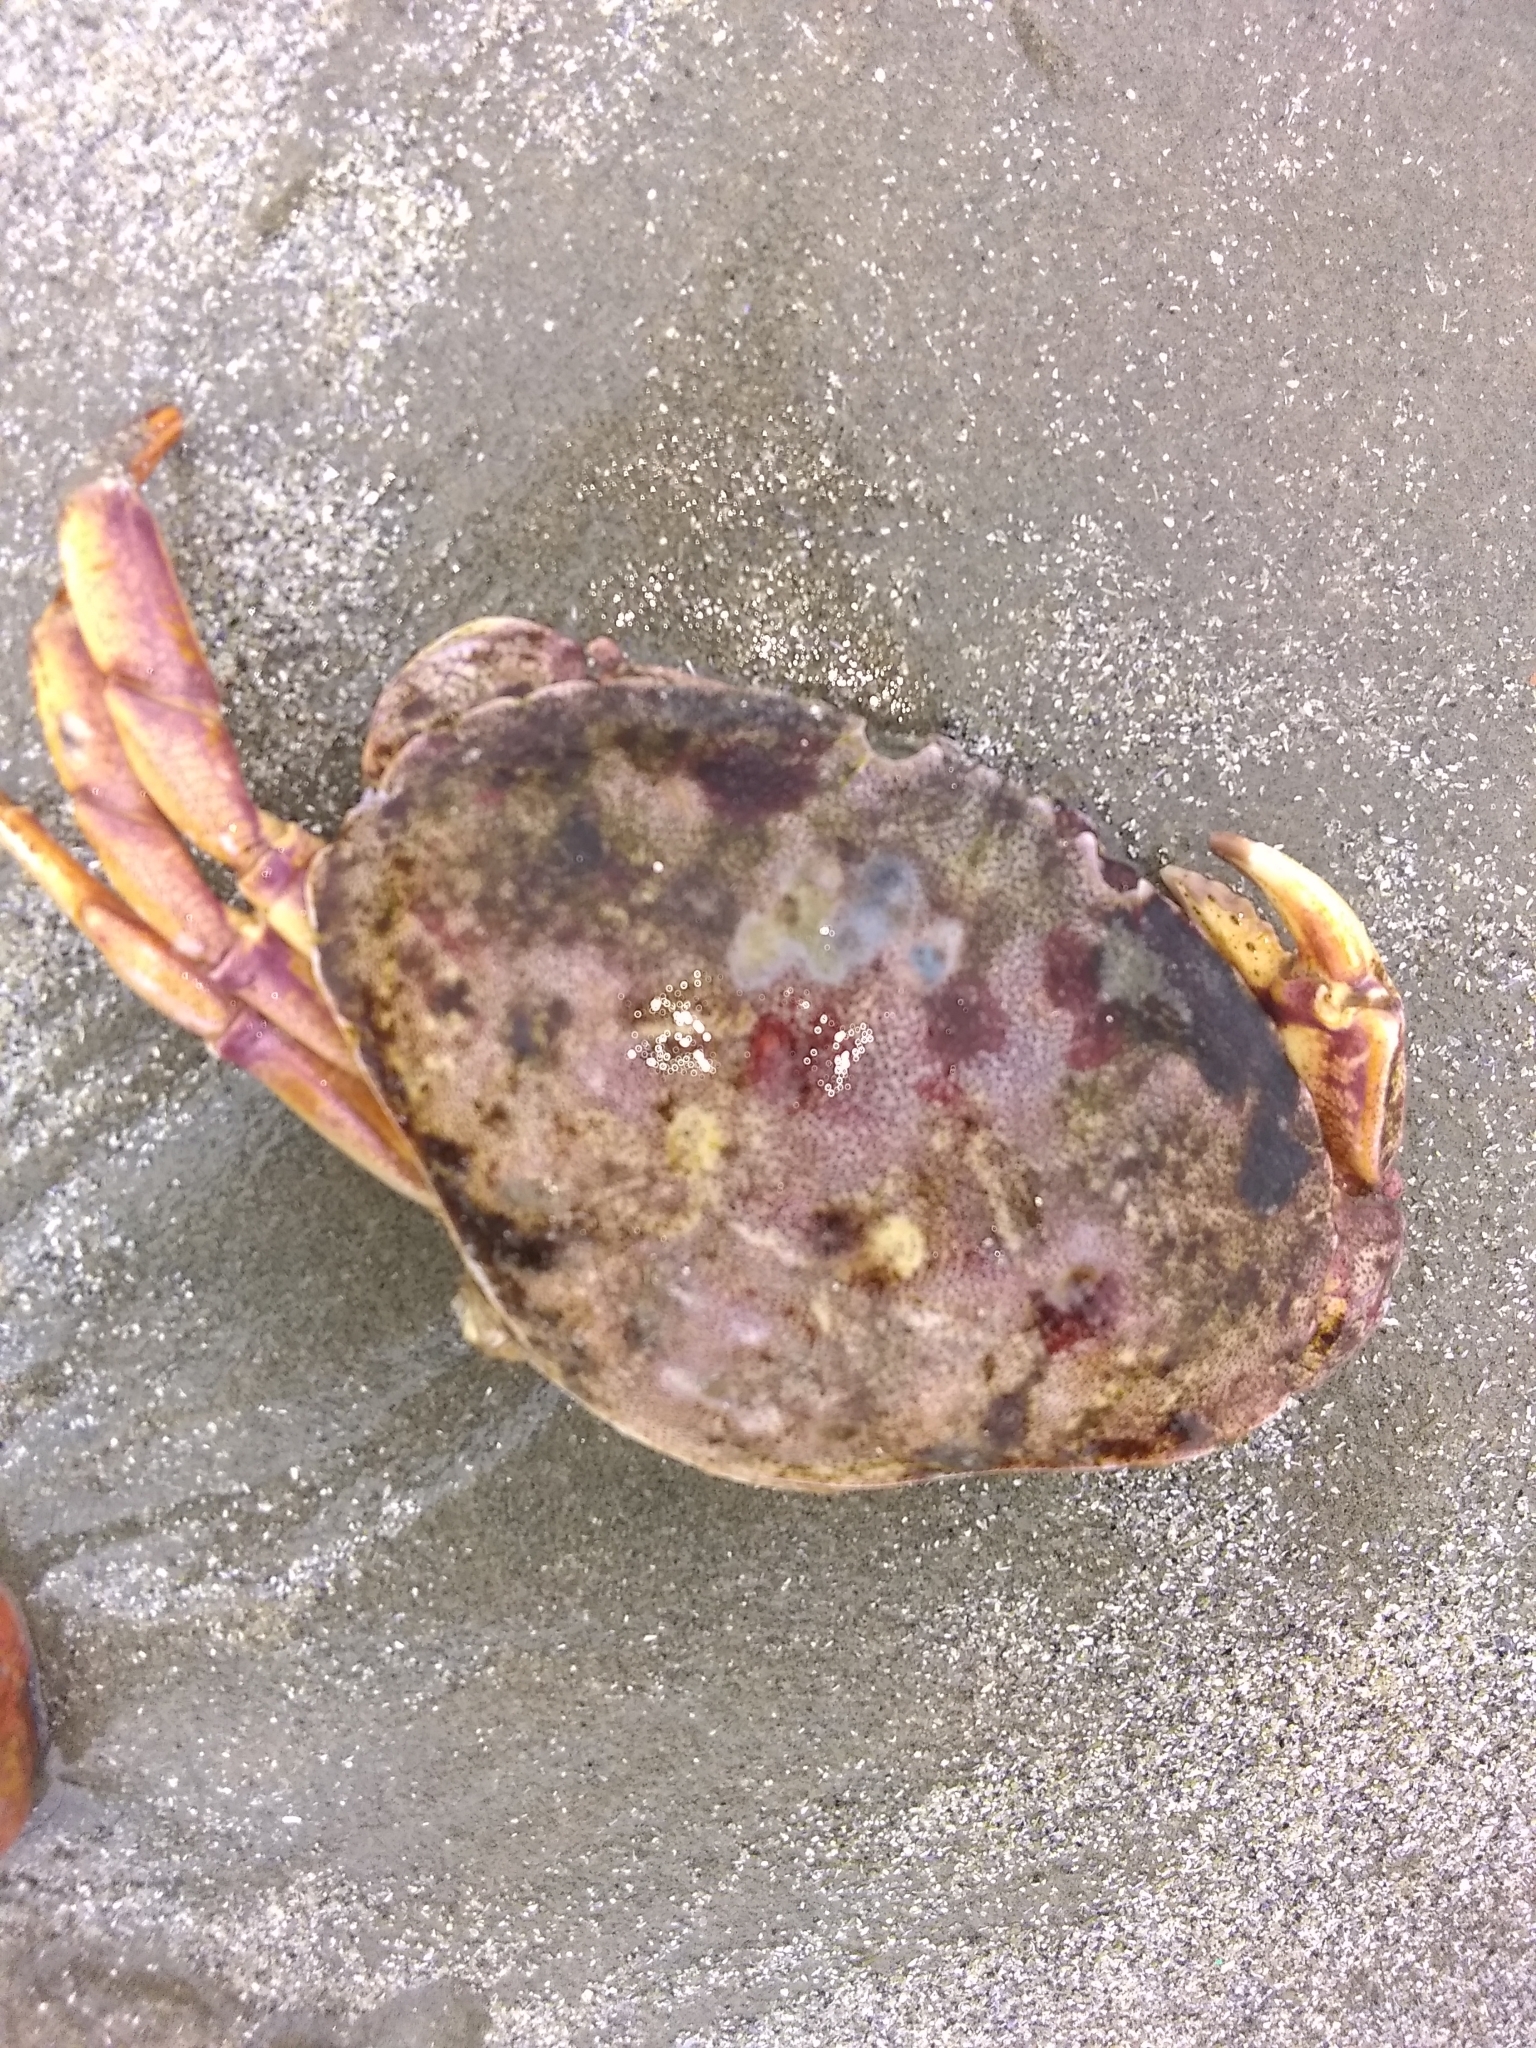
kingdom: Animalia
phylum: Arthropoda
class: Malacostraca
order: Decapoda
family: Cancridae
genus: Cancer
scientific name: Cancer irroratus
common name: Atlantic rock crab
